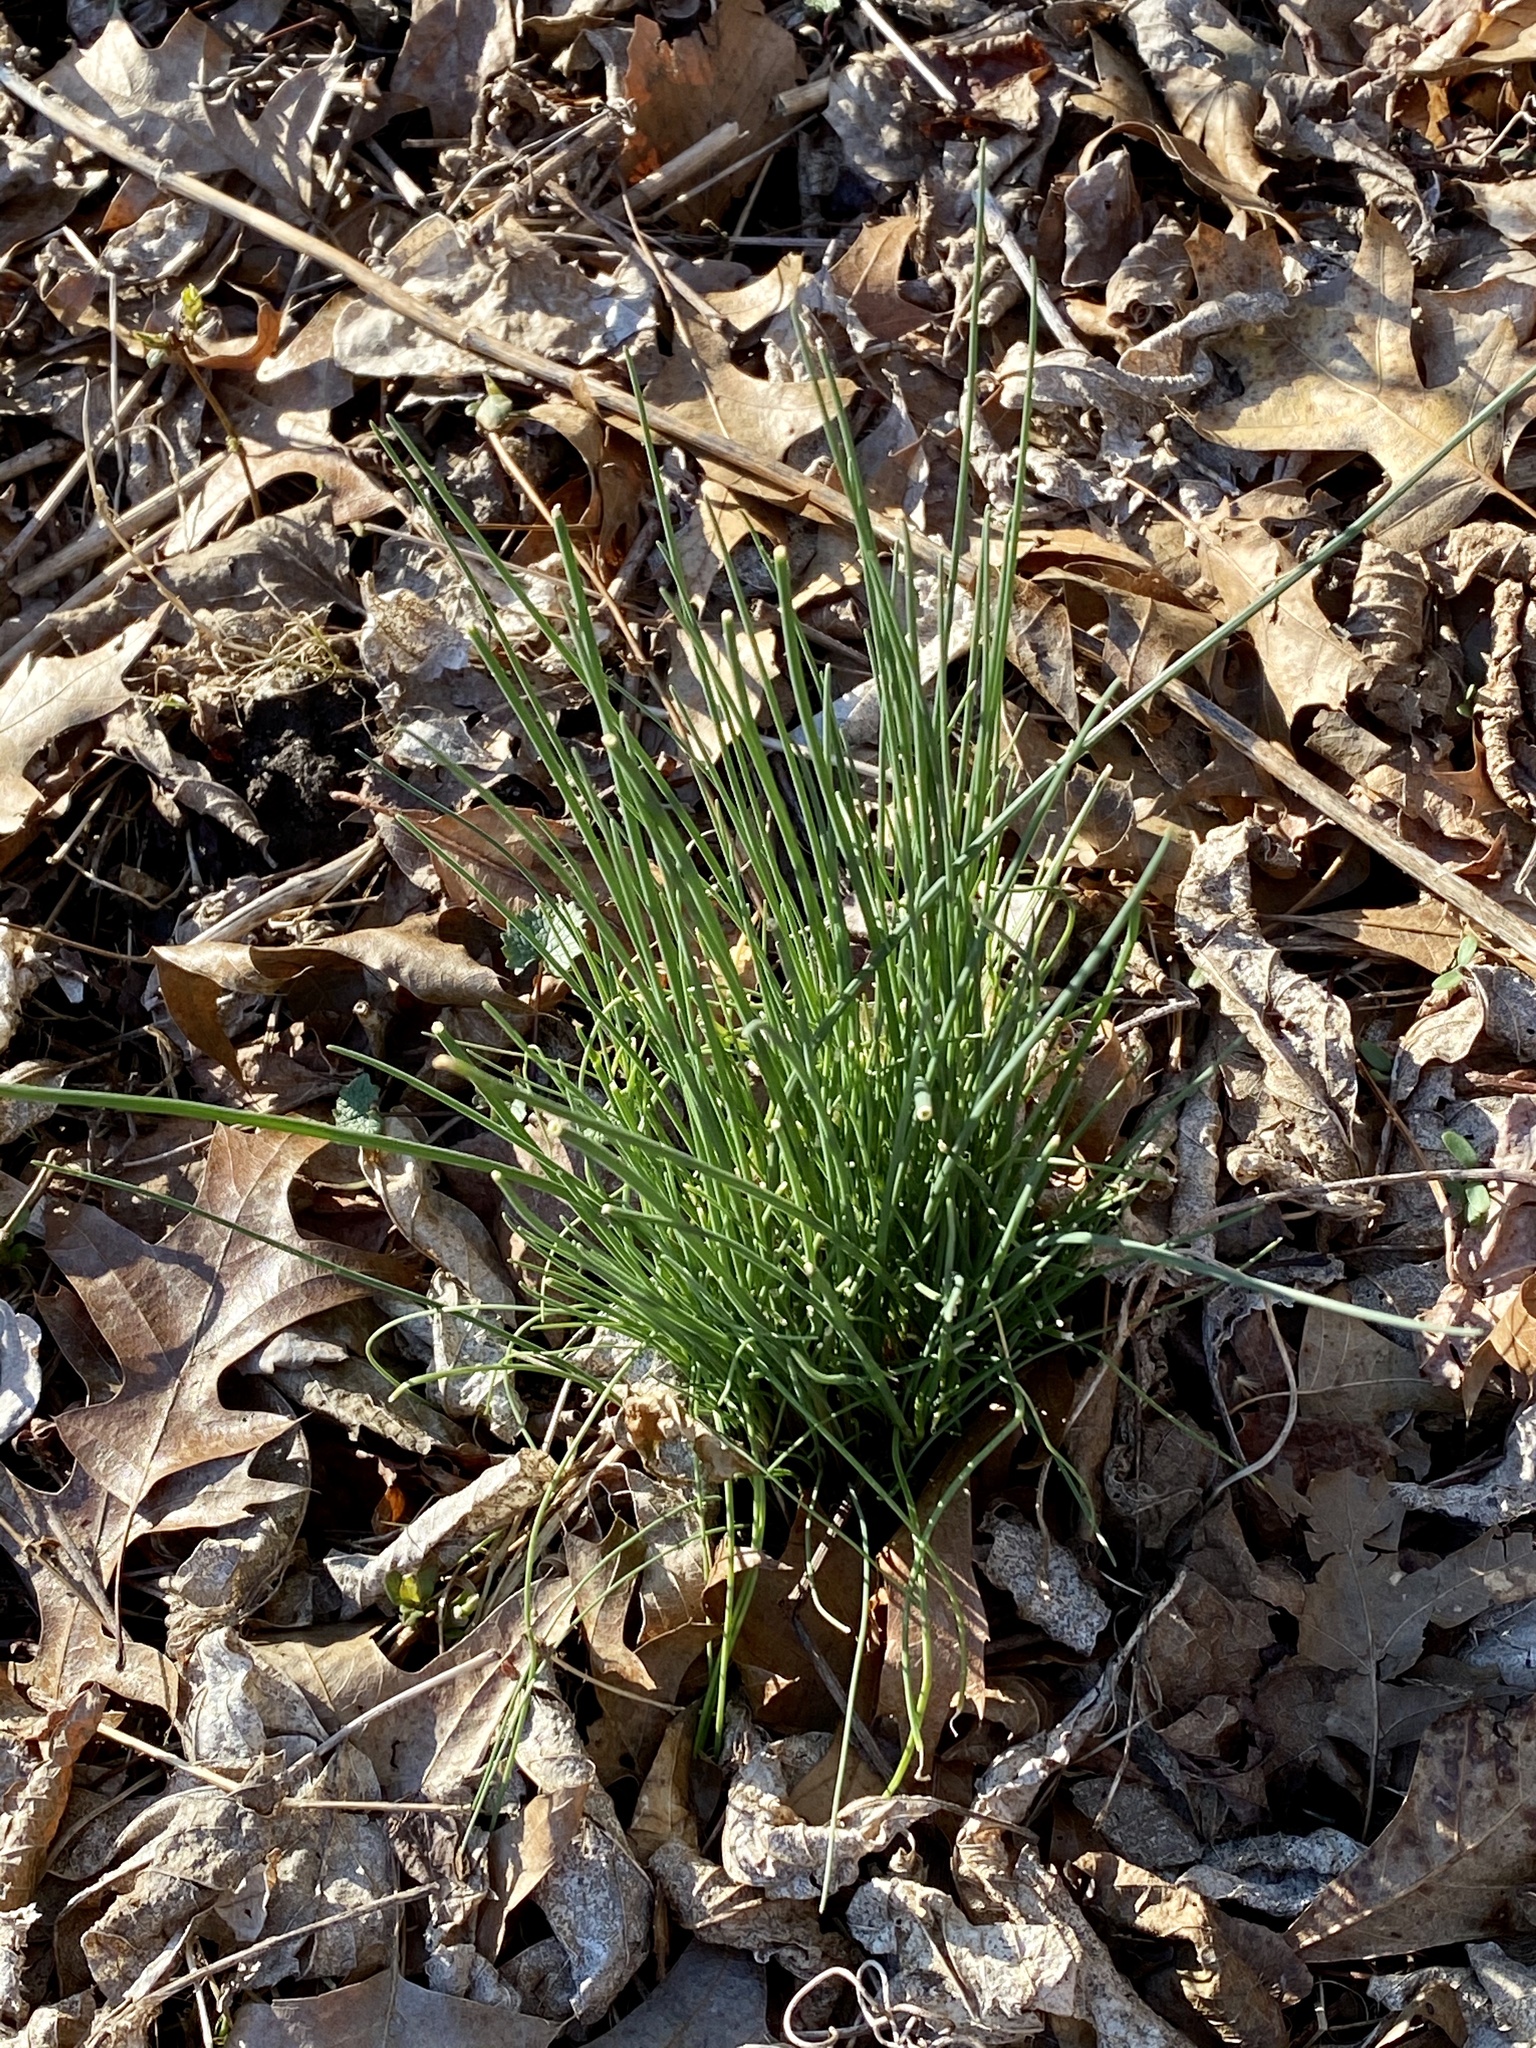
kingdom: Plantae
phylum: Tracheophyta
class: Liliopsida
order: Asparagales
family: Amaryllidaceae
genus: Allium
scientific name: Allium vineale
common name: Crow garlic
